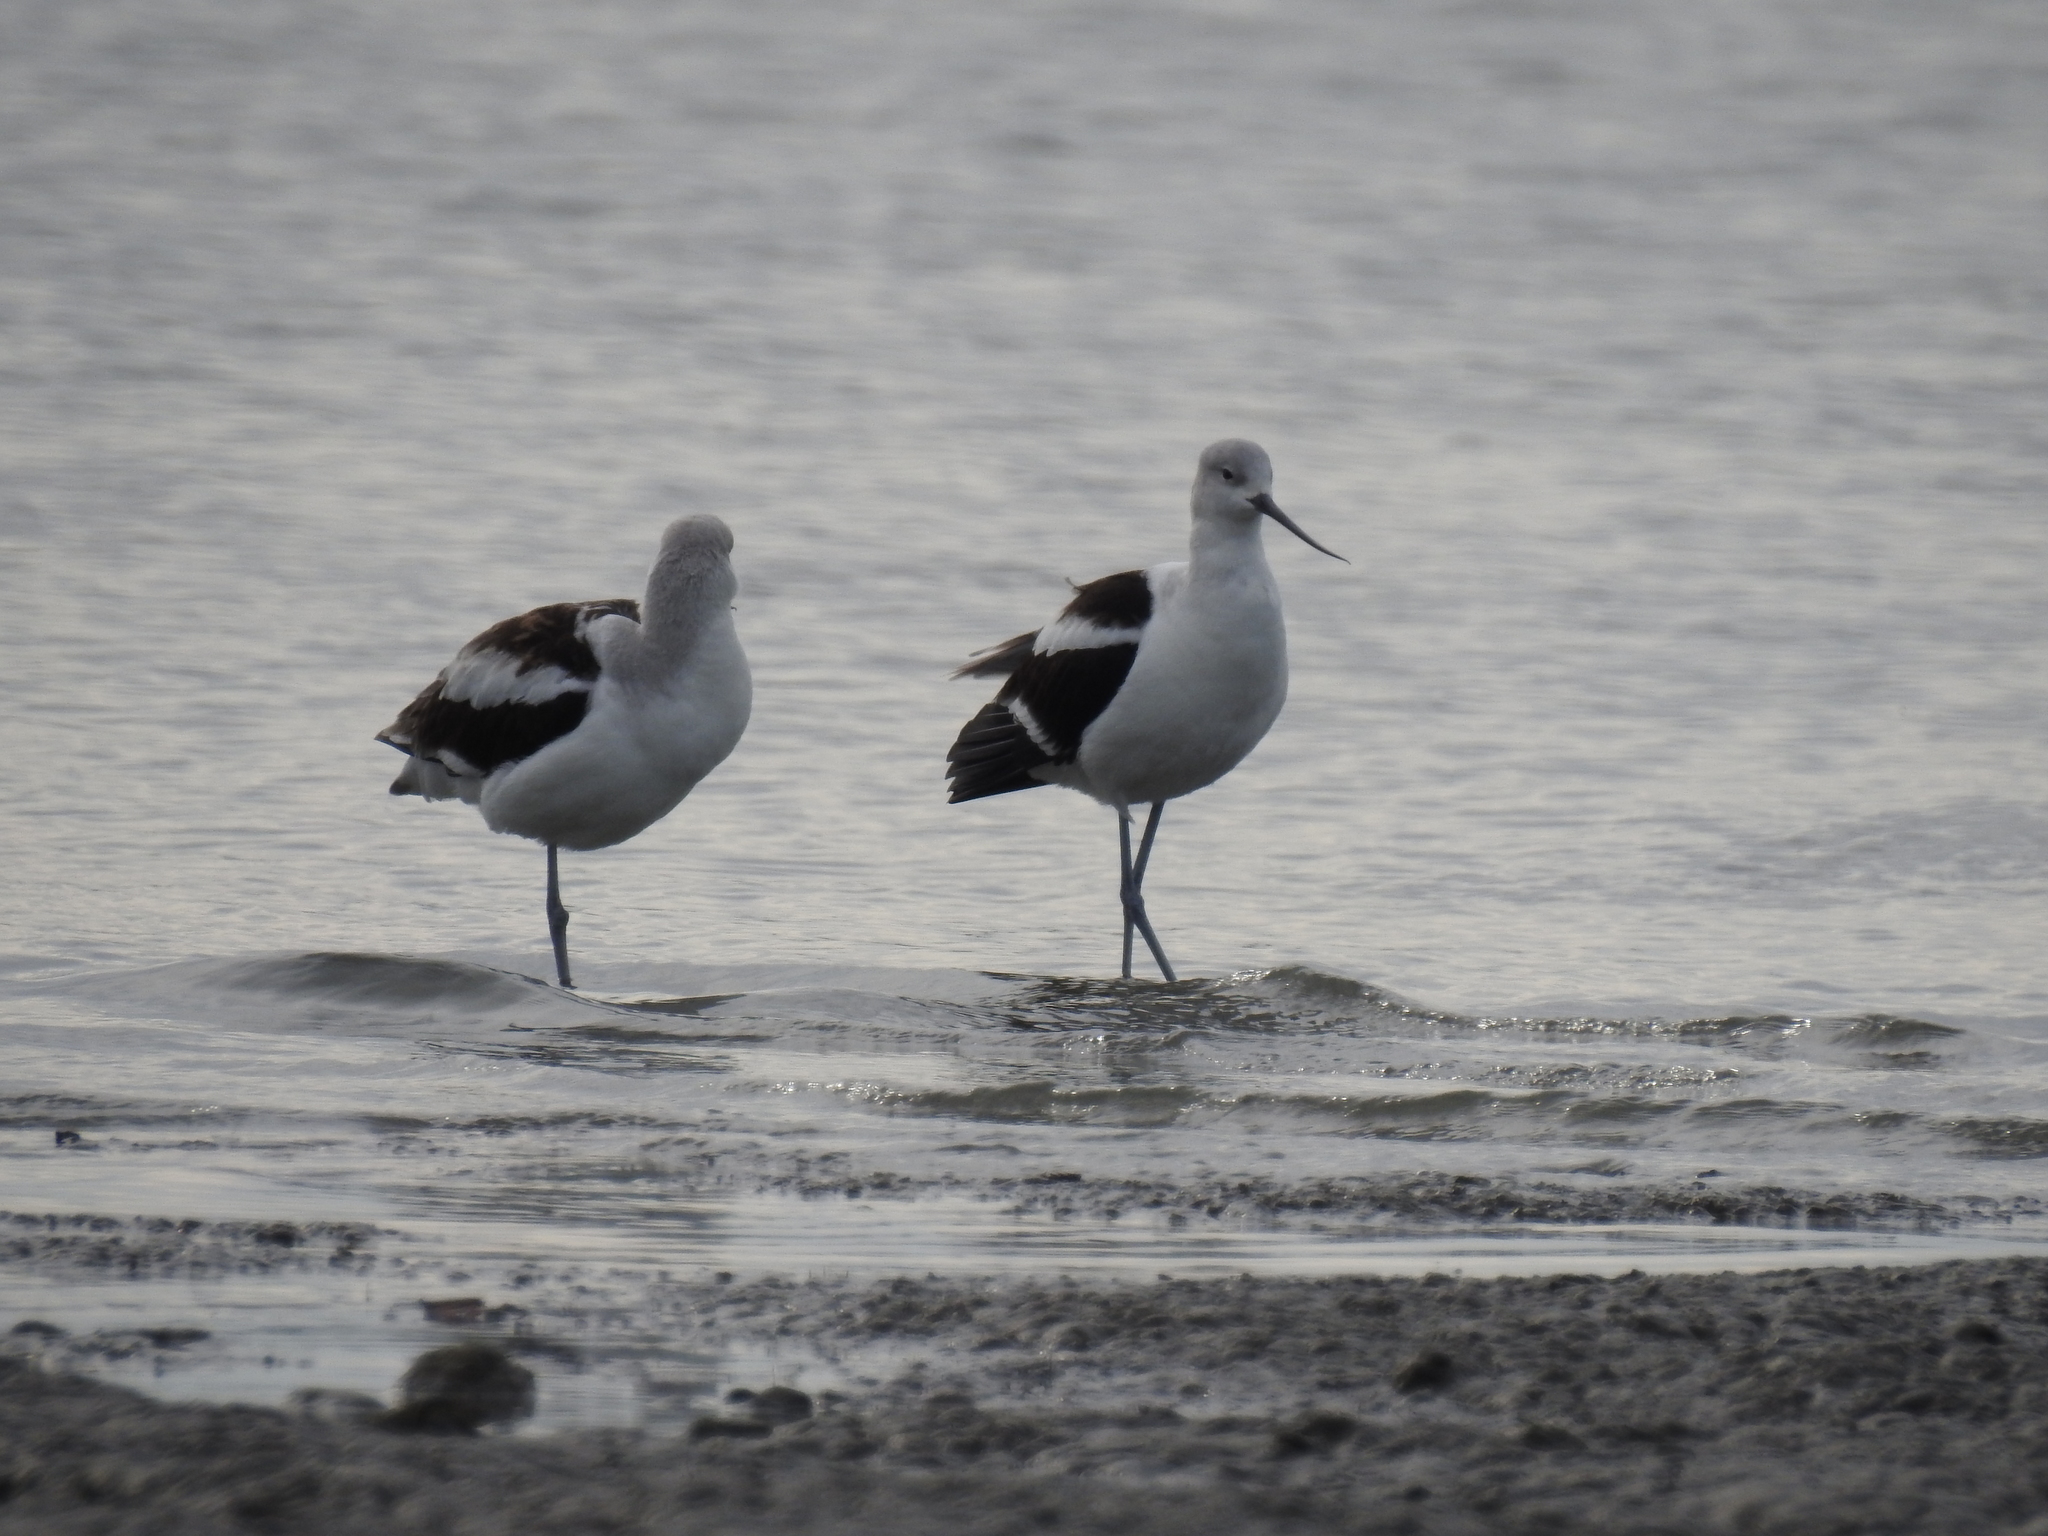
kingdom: Animalia
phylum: Chordata
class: Aves
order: Charadriiformes
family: Recurvirostridae
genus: Recurvirostra
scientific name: Recurvirostra americana
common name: American avocet
